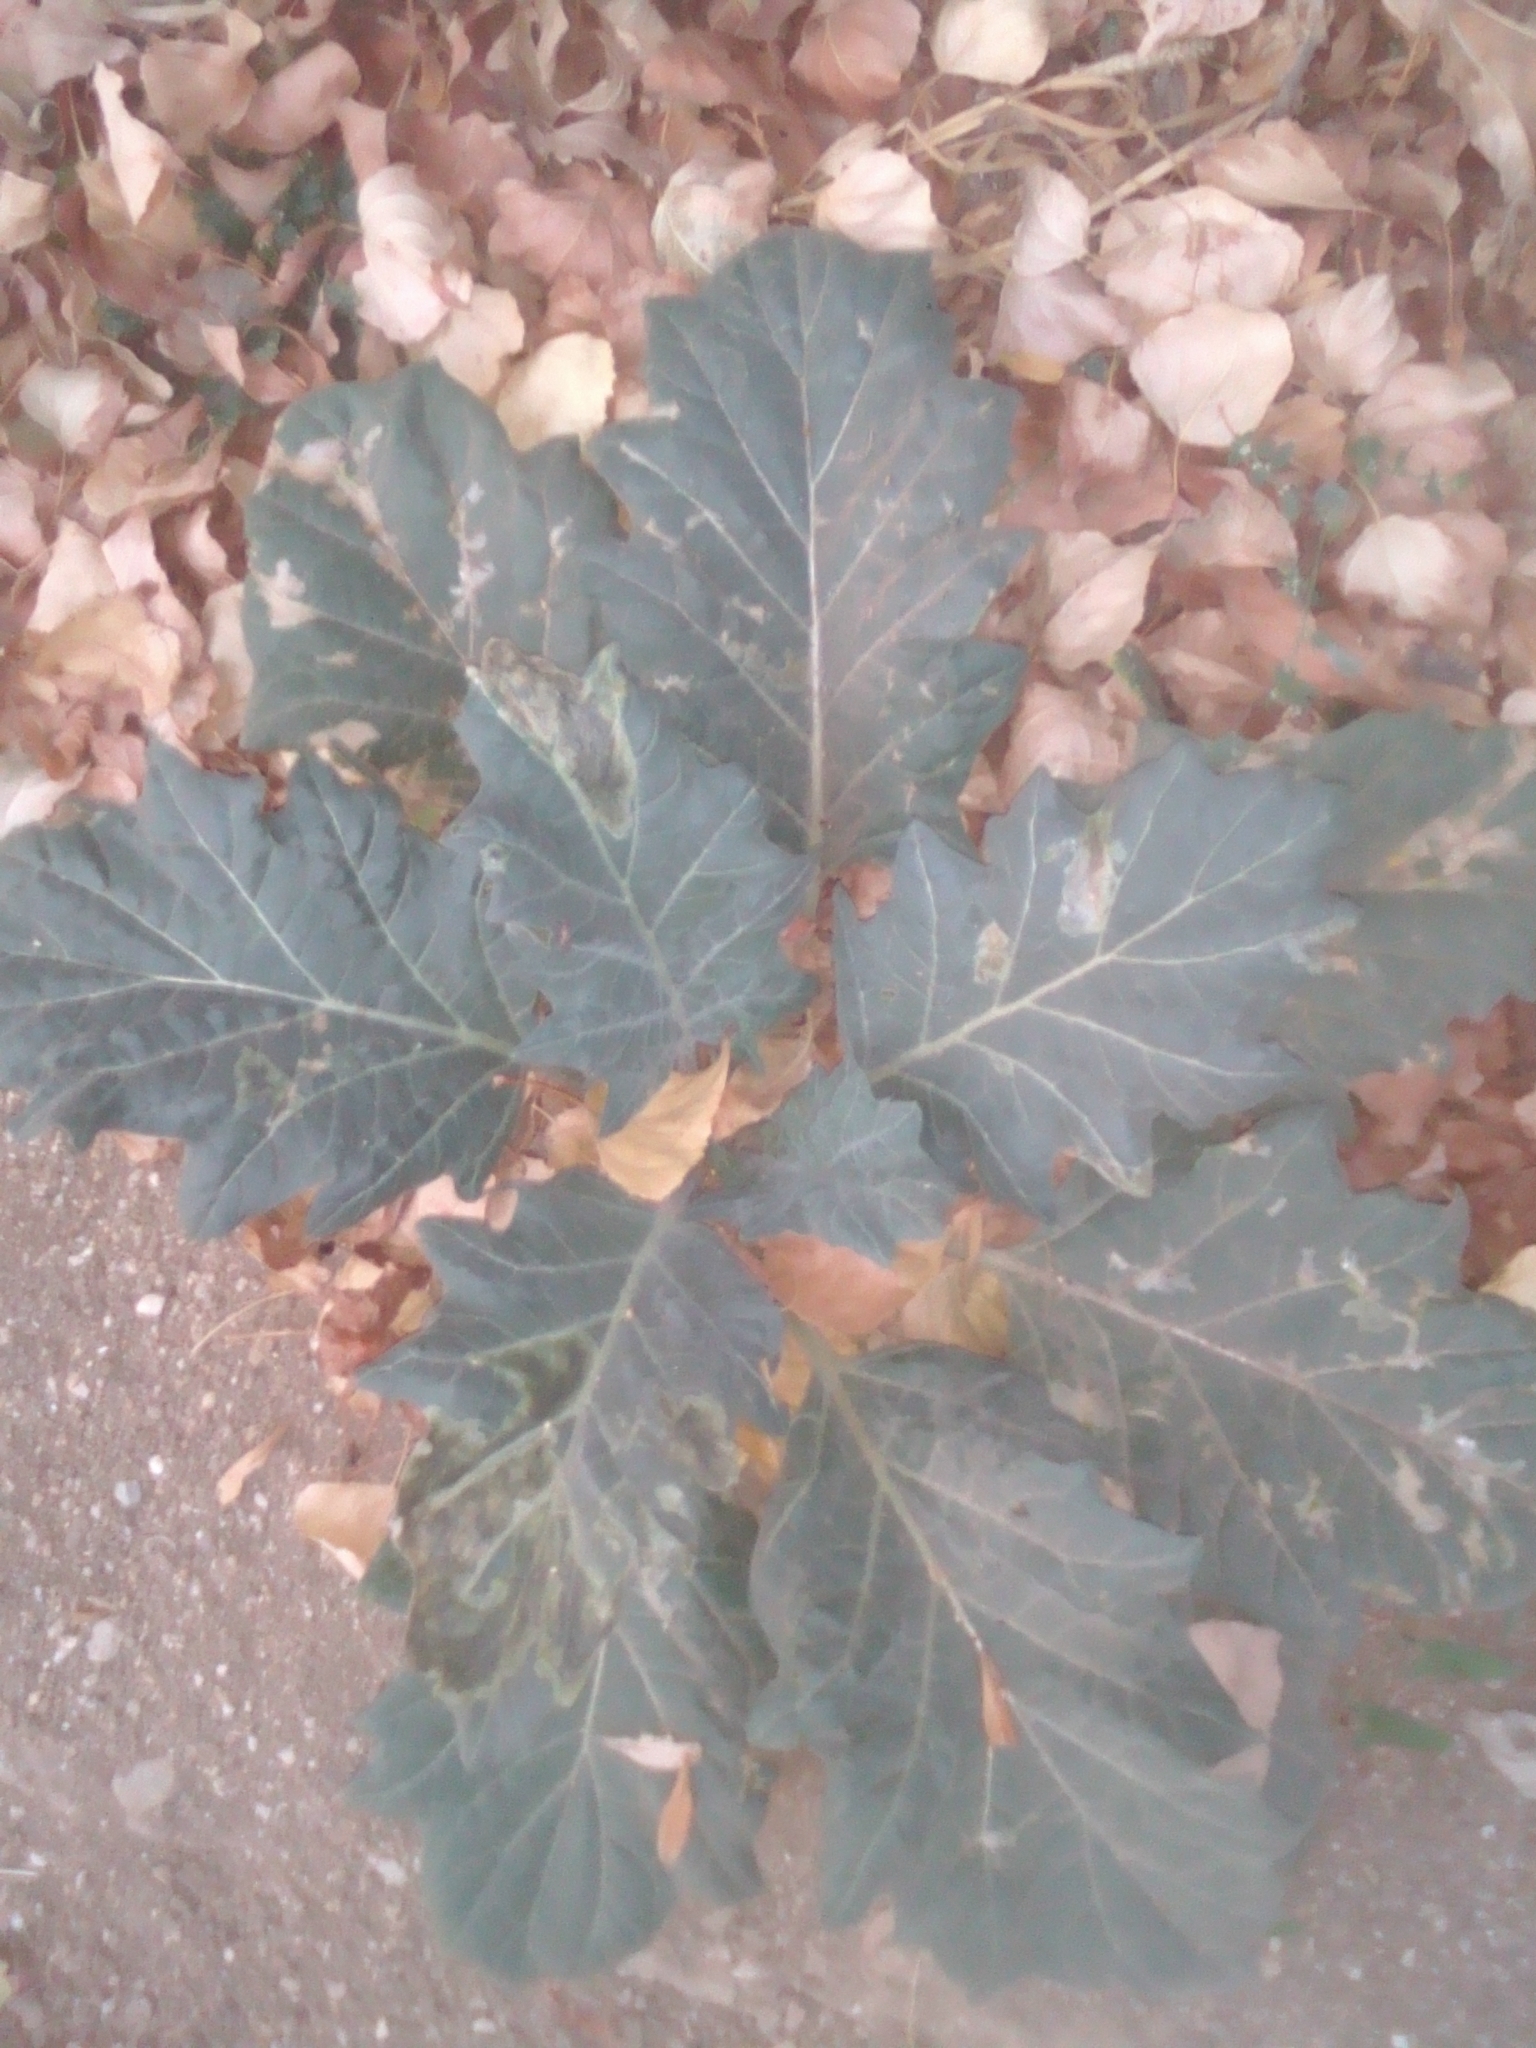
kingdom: Plantae
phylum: Tracheophyta
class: Magnoliopsida
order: Solanales
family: Solanaceae
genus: Hyoscyamus
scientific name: Hyoscyamus niger
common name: Henbane
